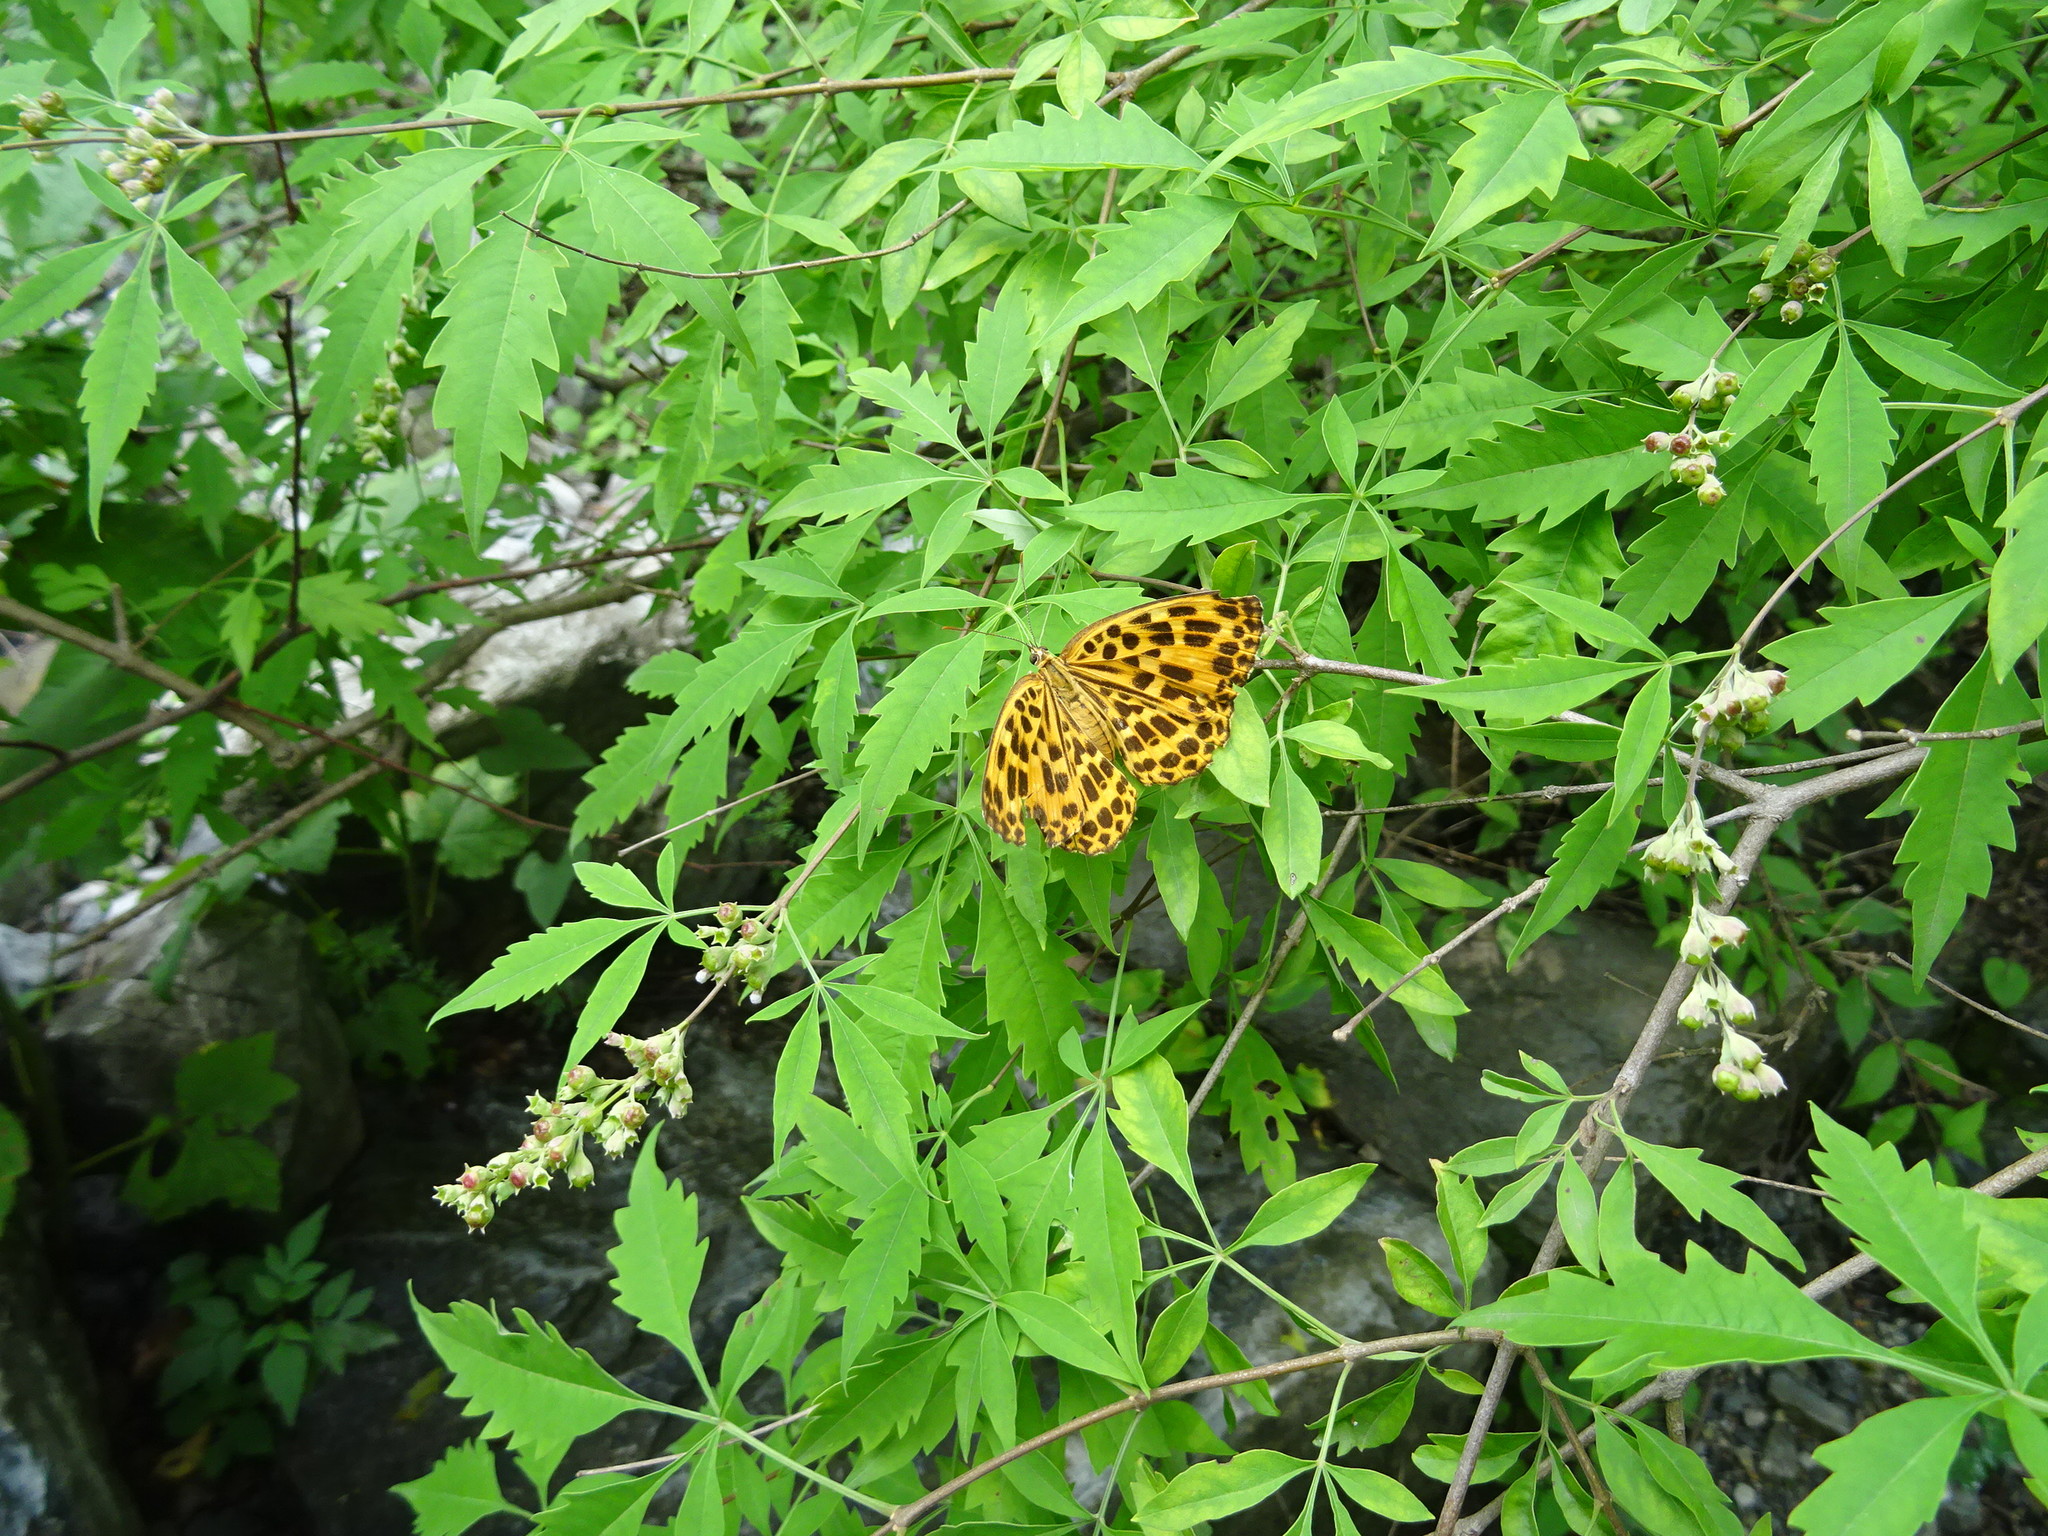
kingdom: Animalia
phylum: Arthropoda
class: Insecta
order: Lepidoptera
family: Nymphalidae
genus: Timelaea
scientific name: Timelaea maculata
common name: Spotted leopard butterfly
